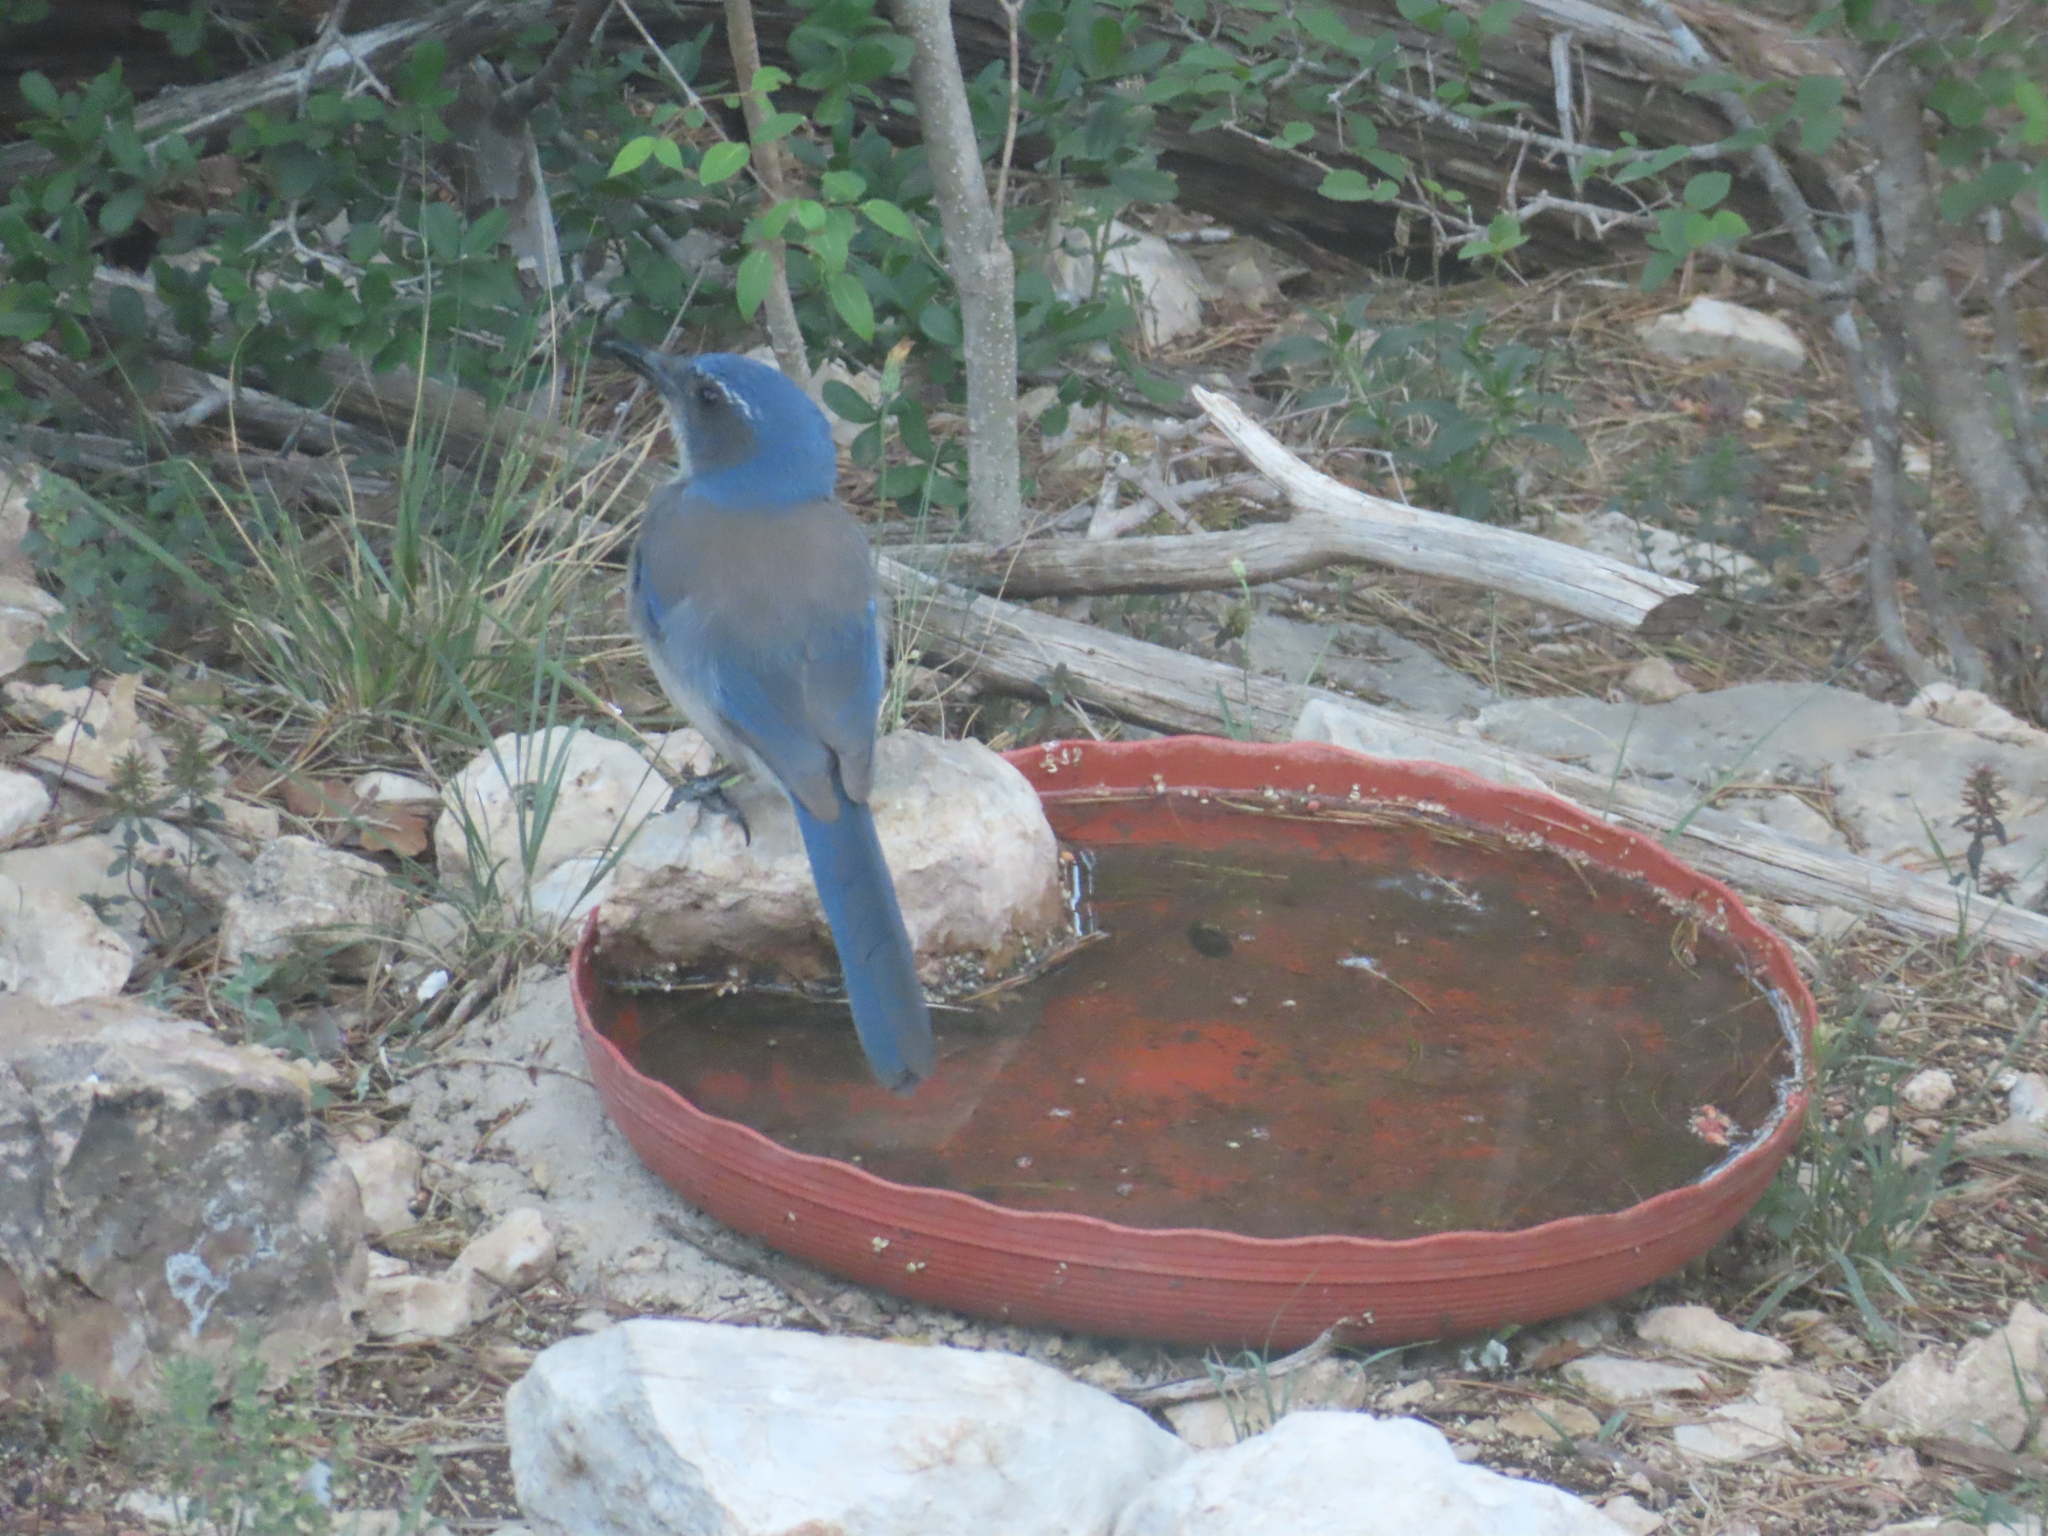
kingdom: Animalia
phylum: Chordata
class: Aves
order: Passeriformes
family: Corvidae
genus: Aphelocoma
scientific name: Aphelocoma woodhouseii
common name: Woodhouse's scrub-jay
